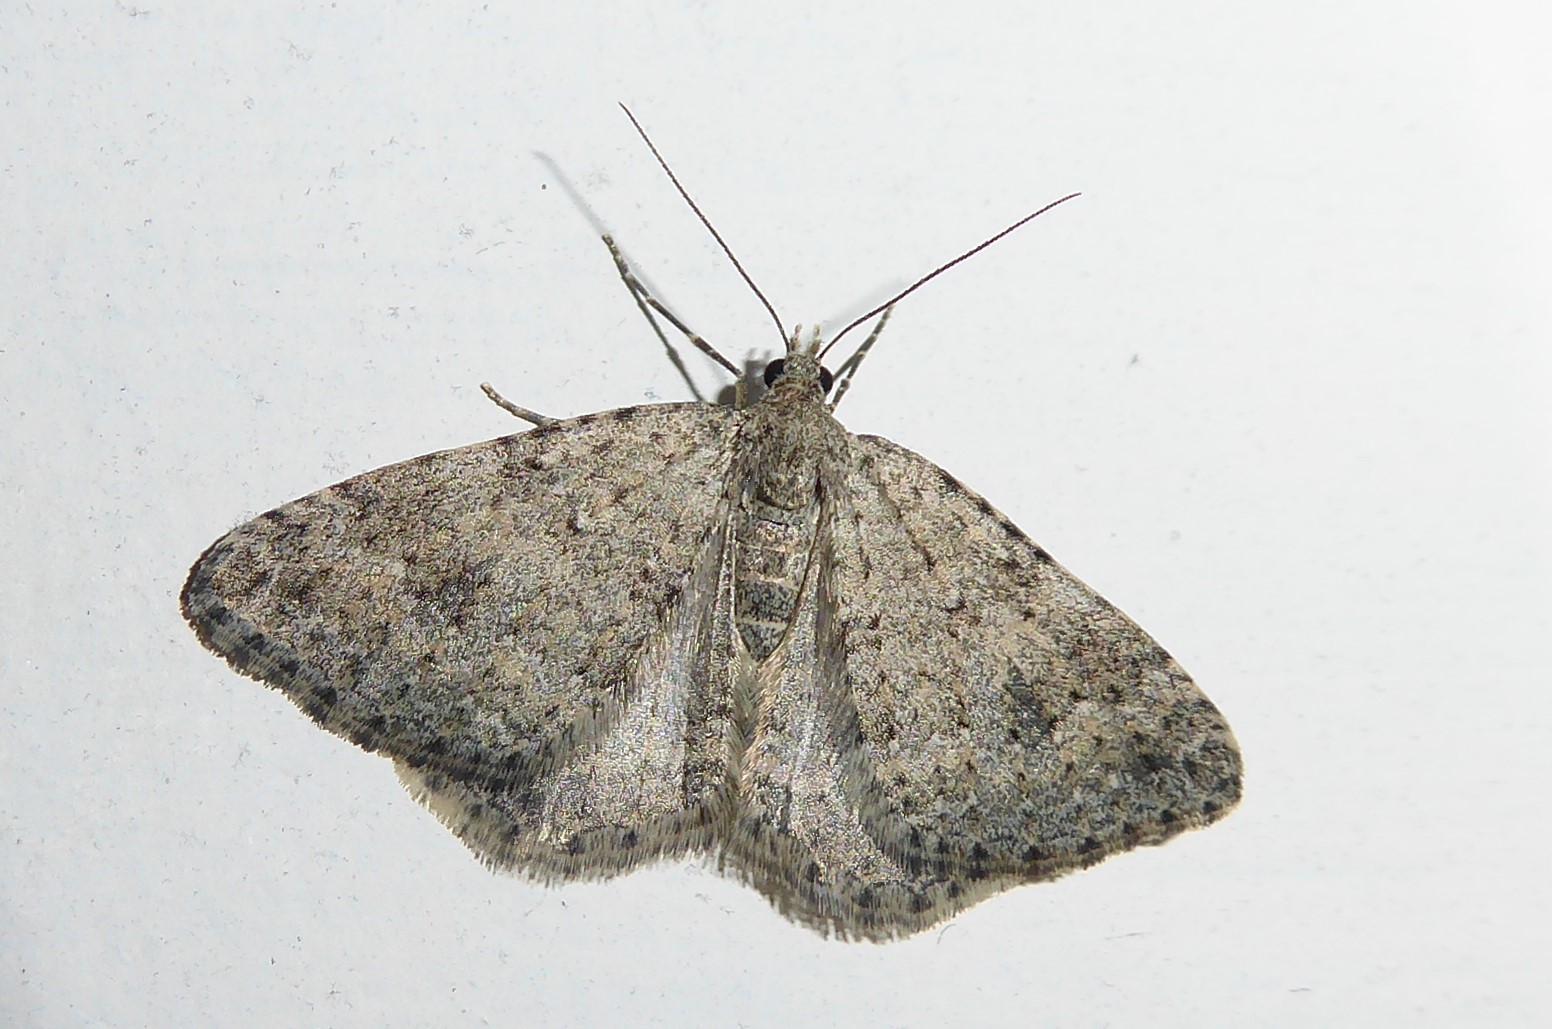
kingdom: Animalia
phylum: Arthropoda
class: Insecta
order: Lepidoptera
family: Geometridae
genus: Helastia
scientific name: Helastia corcularia
